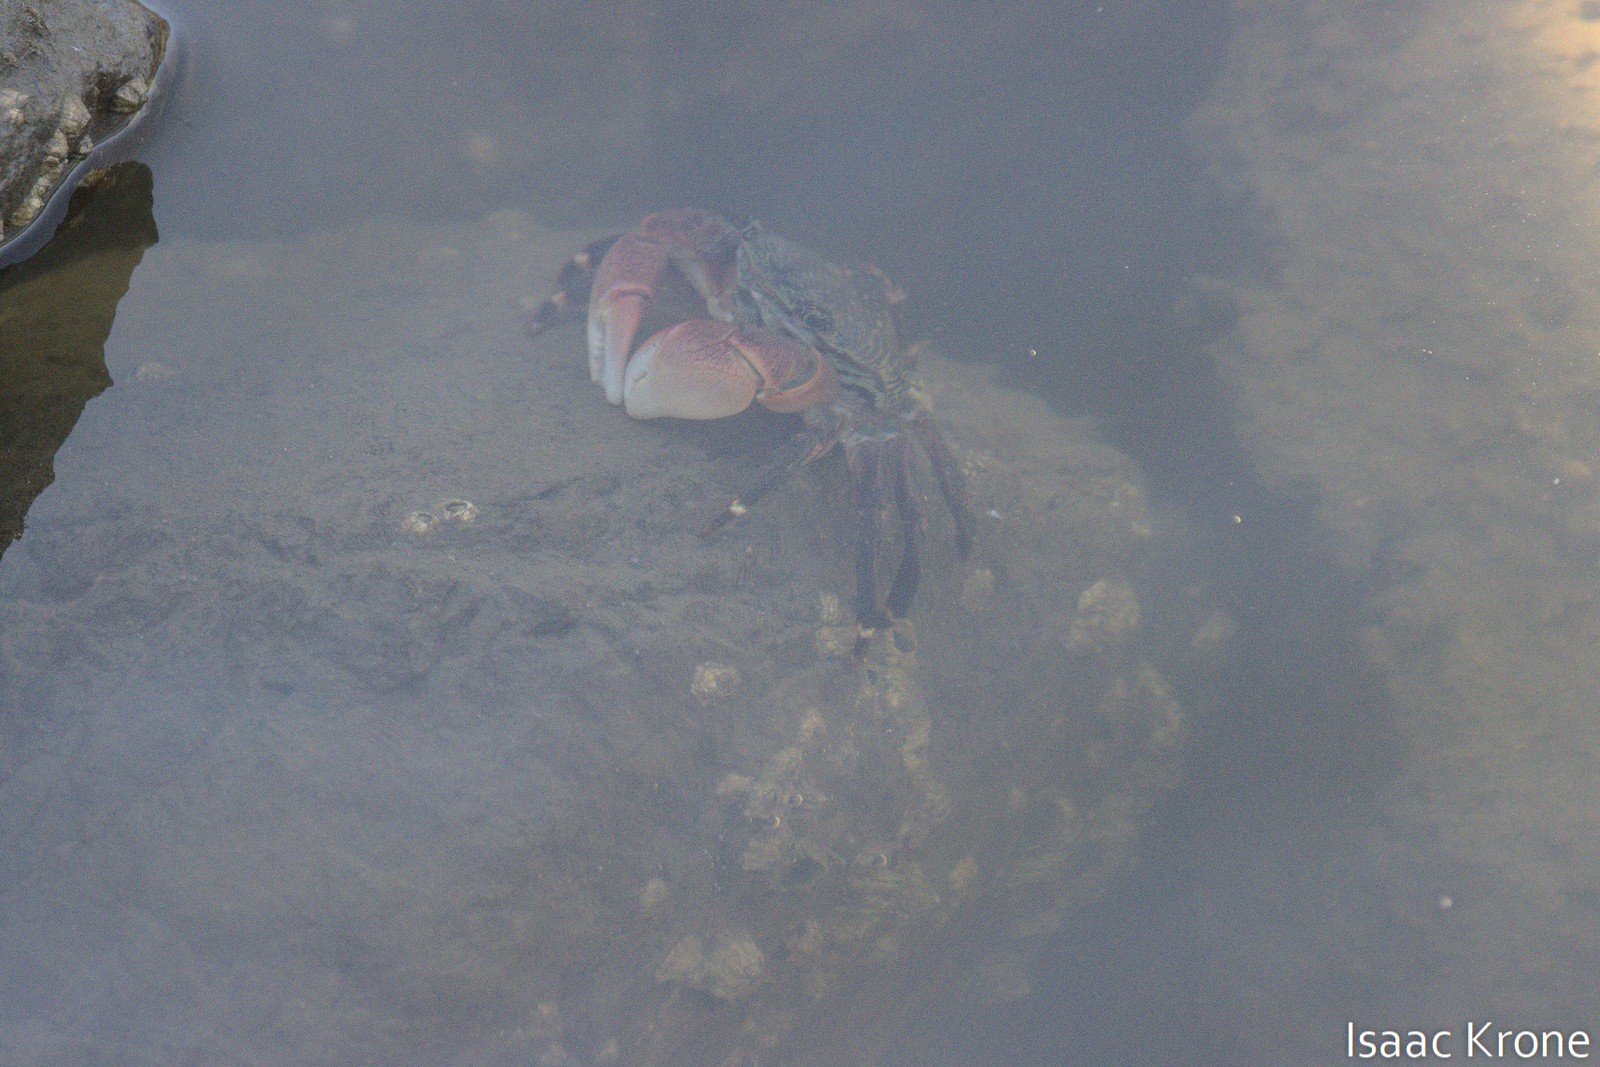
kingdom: Animalia
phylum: Arthropoda
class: Malacostraca
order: Decapoda
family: Grapsidae
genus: Pachygrapsus
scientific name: Pachygrapsus crassipes
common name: Striped shore crab
